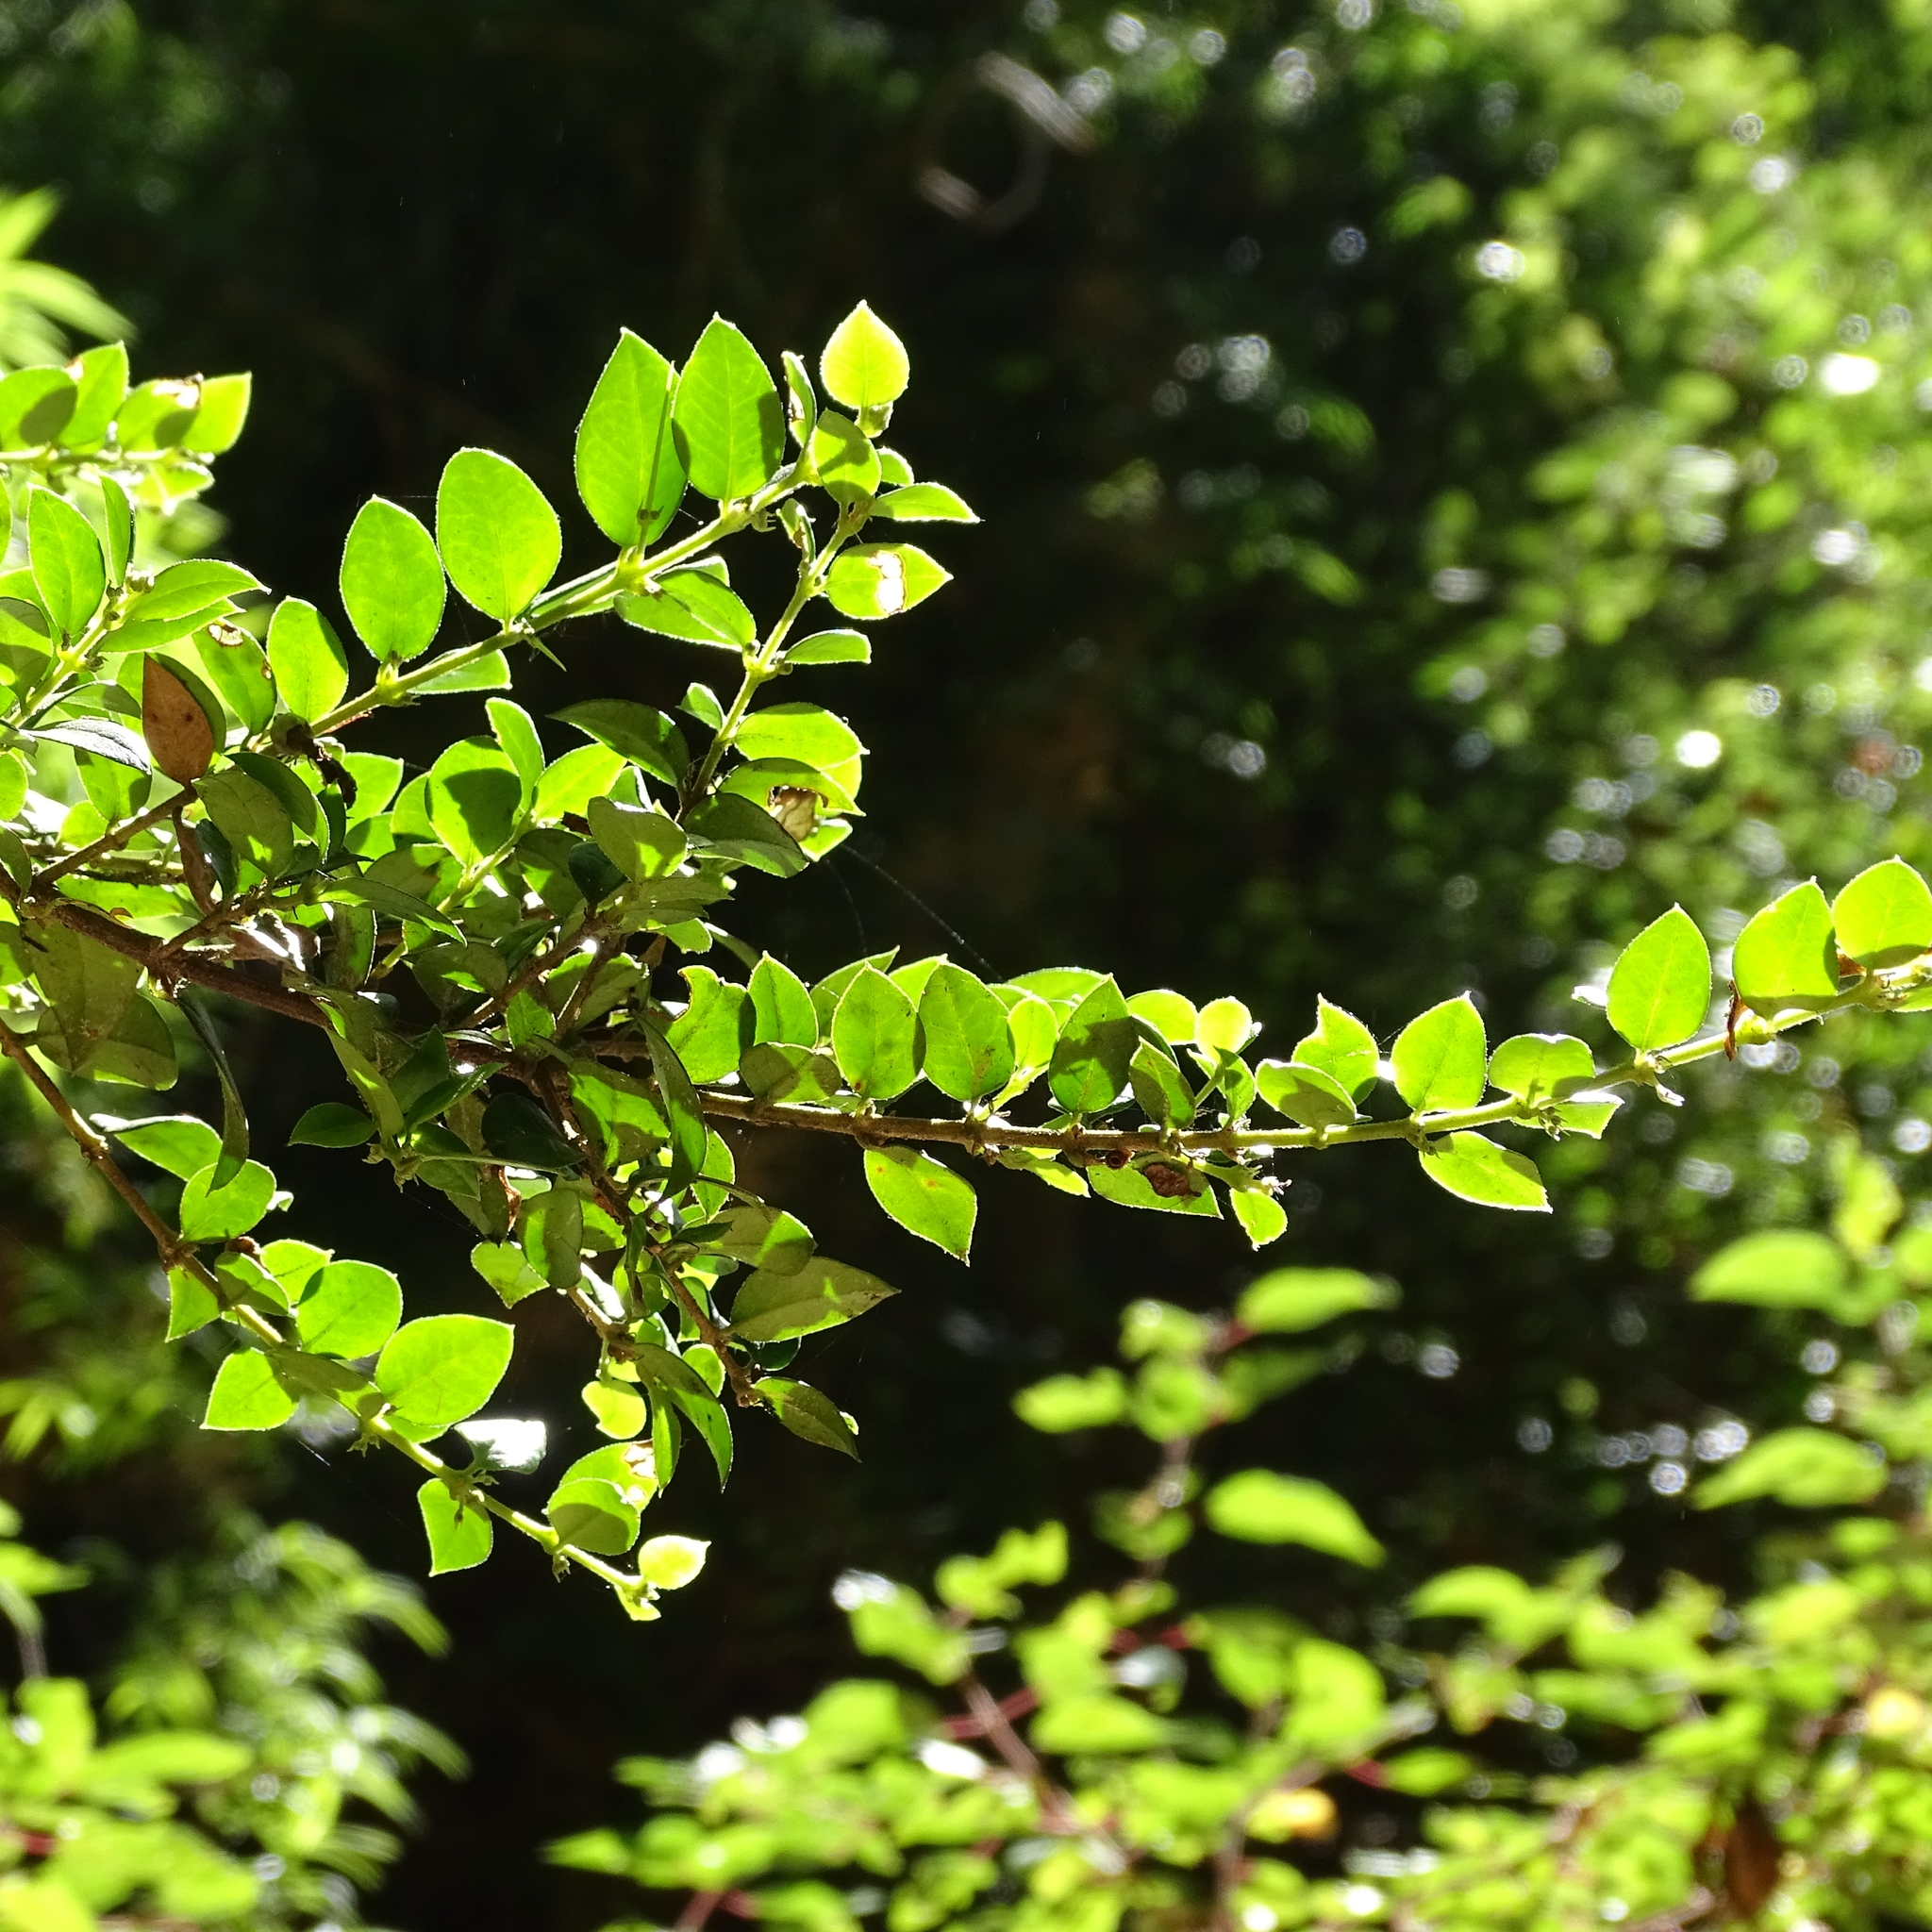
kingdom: Plantae
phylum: Tracheophyta
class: Magnoliopsida
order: Lamiales
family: Verbenaceae
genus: Rhaphithamnus
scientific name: Rhaphithamnus spinosus
